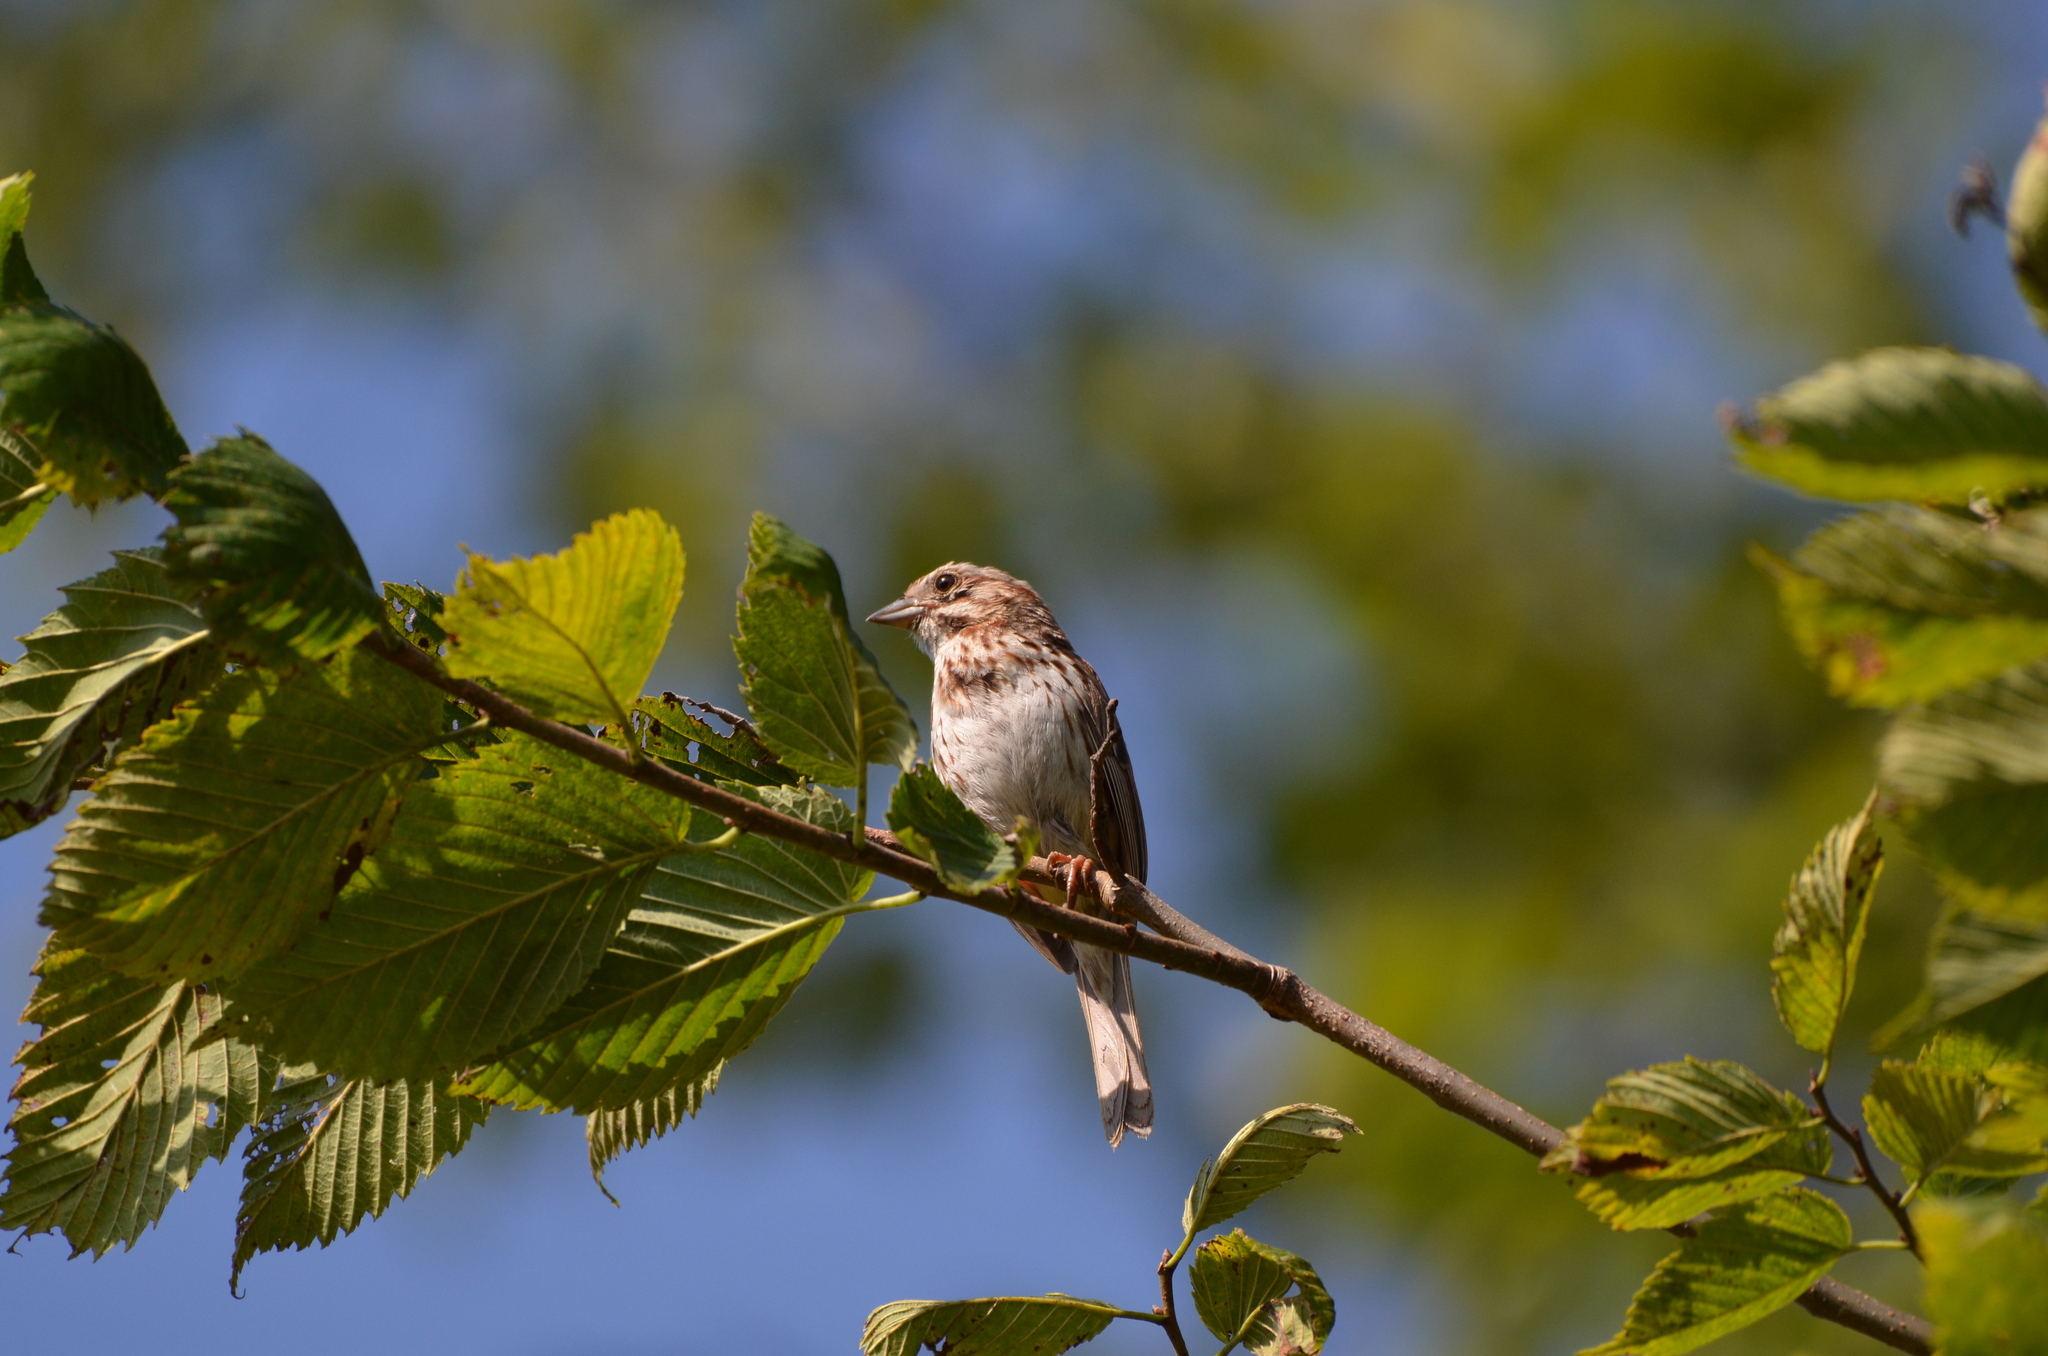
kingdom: Animalia
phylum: Chordata
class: Aves
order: Passeriformes
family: Passerellidae
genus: Melospiza
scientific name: Melospiza melodia
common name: Song sparrow
